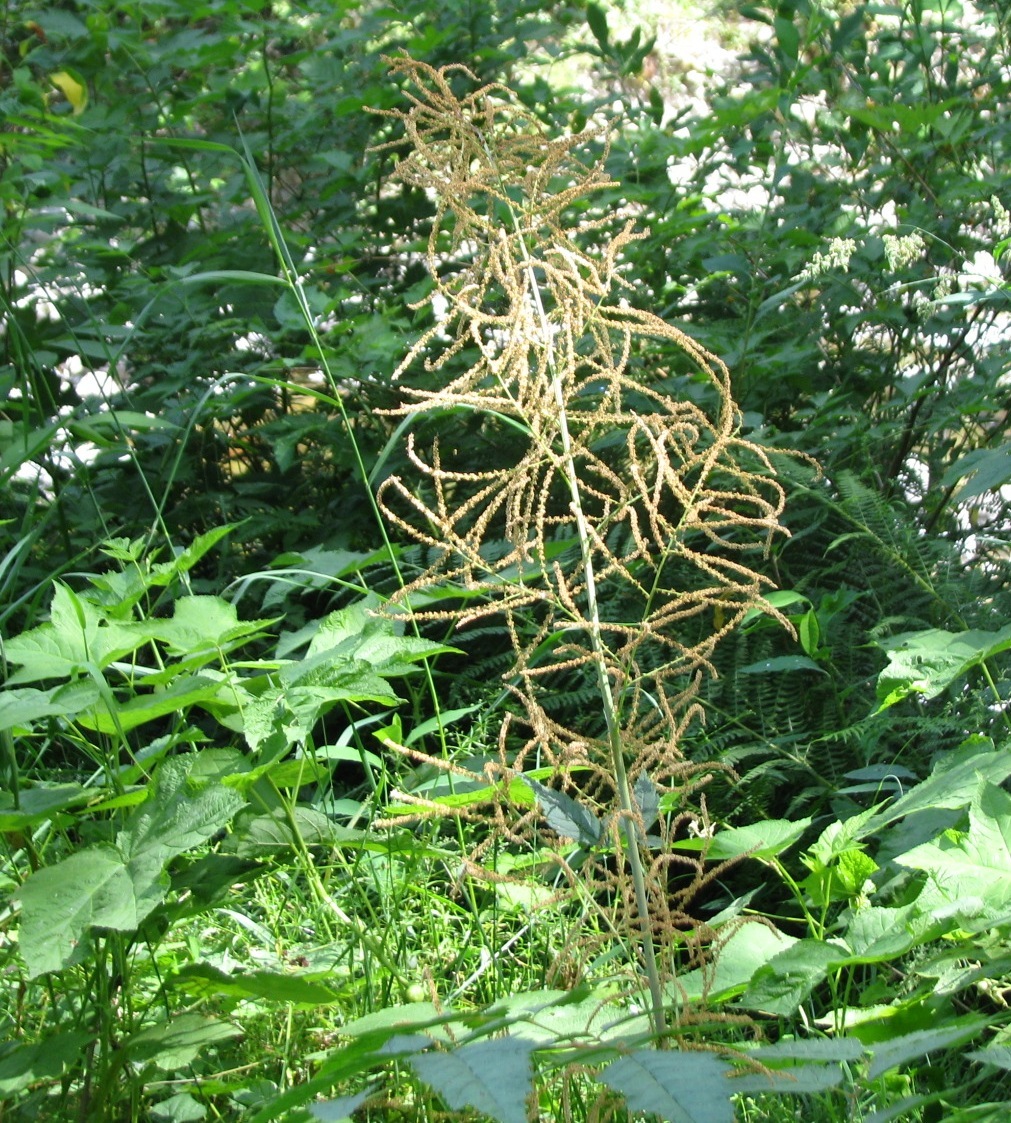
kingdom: Plantae
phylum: Tracheophyta
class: Magnoliopsida
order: Rosales
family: Rosaceae
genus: Aruncus
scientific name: Aruncus dioicus
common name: Buck's-beard
